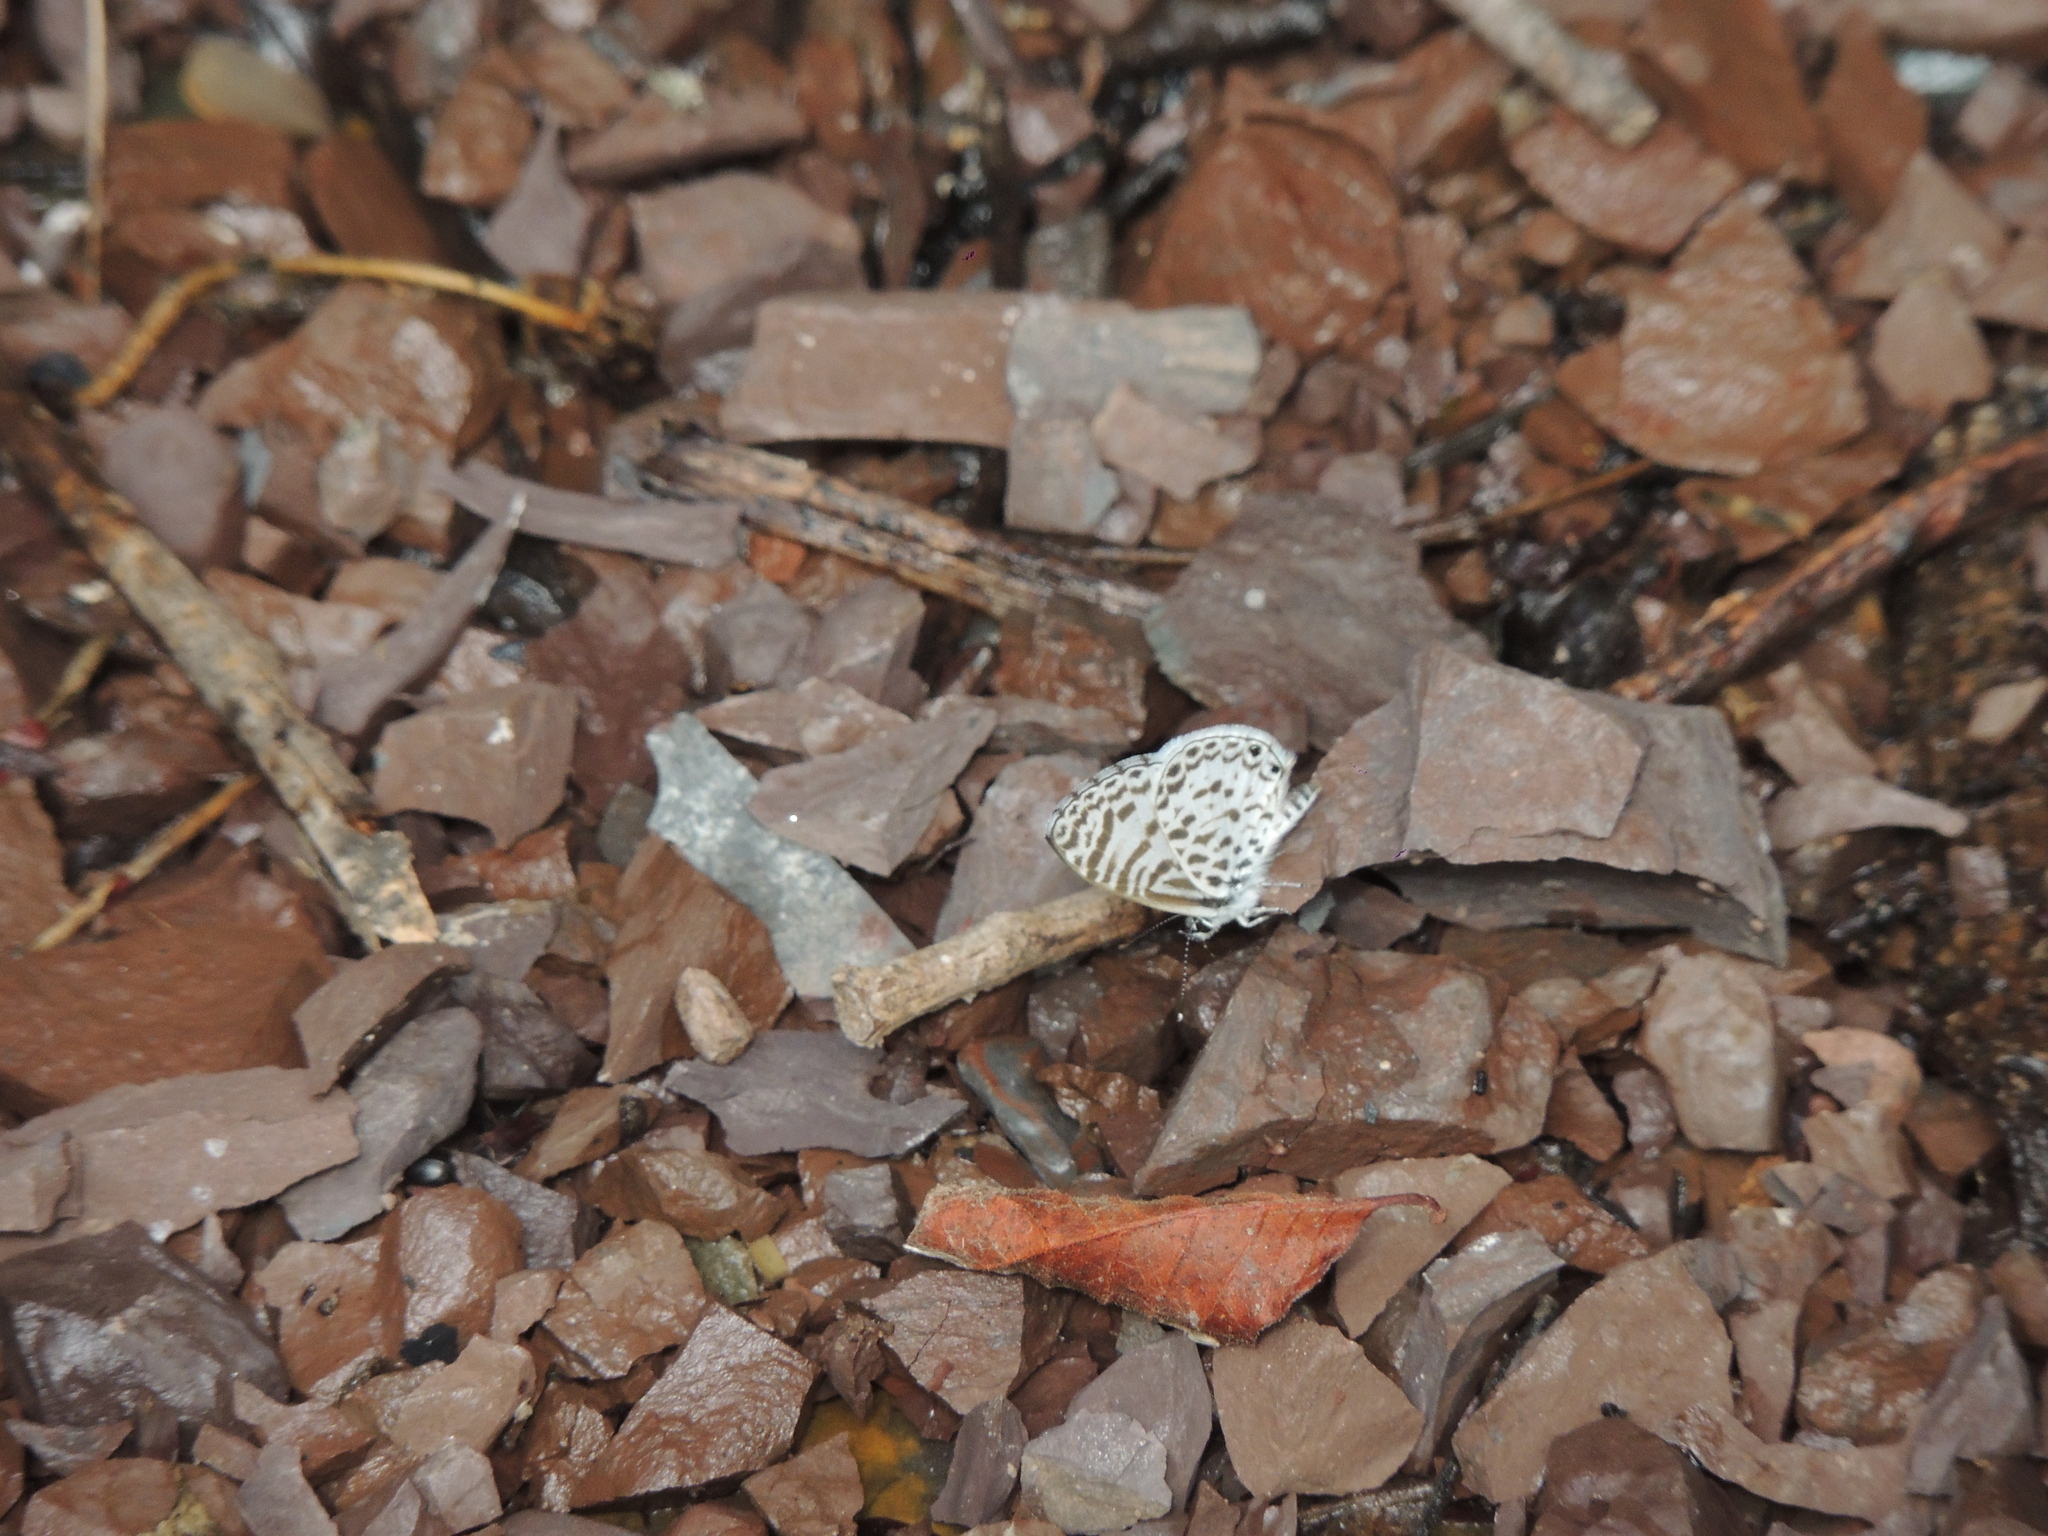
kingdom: Animalia
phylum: Arthropoda
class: Insecta
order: Lepidoptera
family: Lycaenidae
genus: Leptotes
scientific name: Leptotes cassius
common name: Cassius blue
